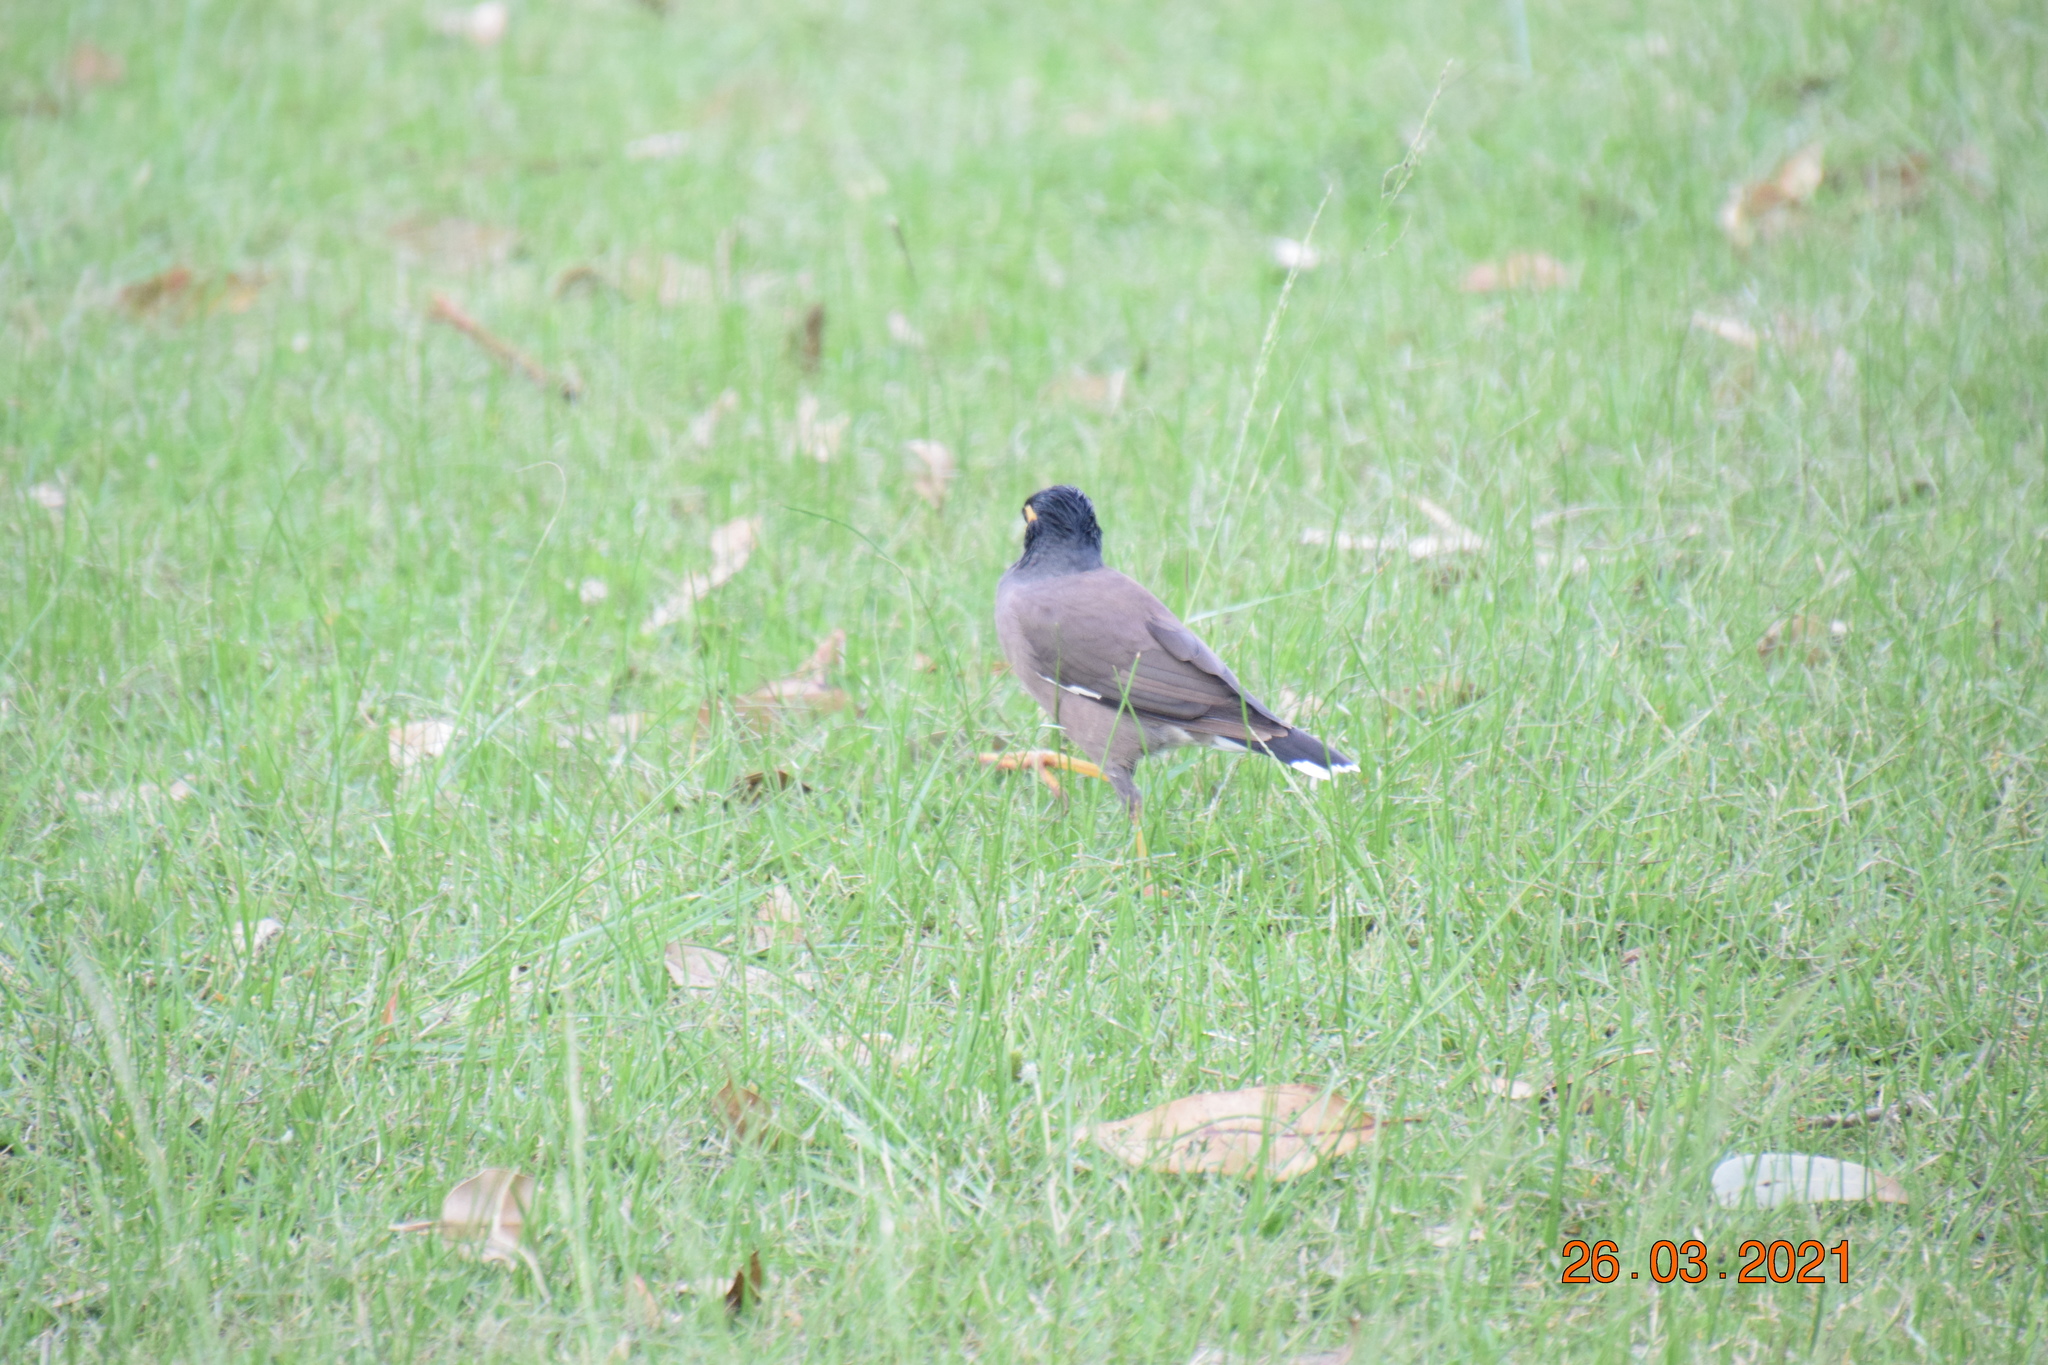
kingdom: Animalia
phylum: Chordata
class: Aves
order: Passeriformes
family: Sturnidae
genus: Acridotheres
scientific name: Acridotheres tristis
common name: Common myna
